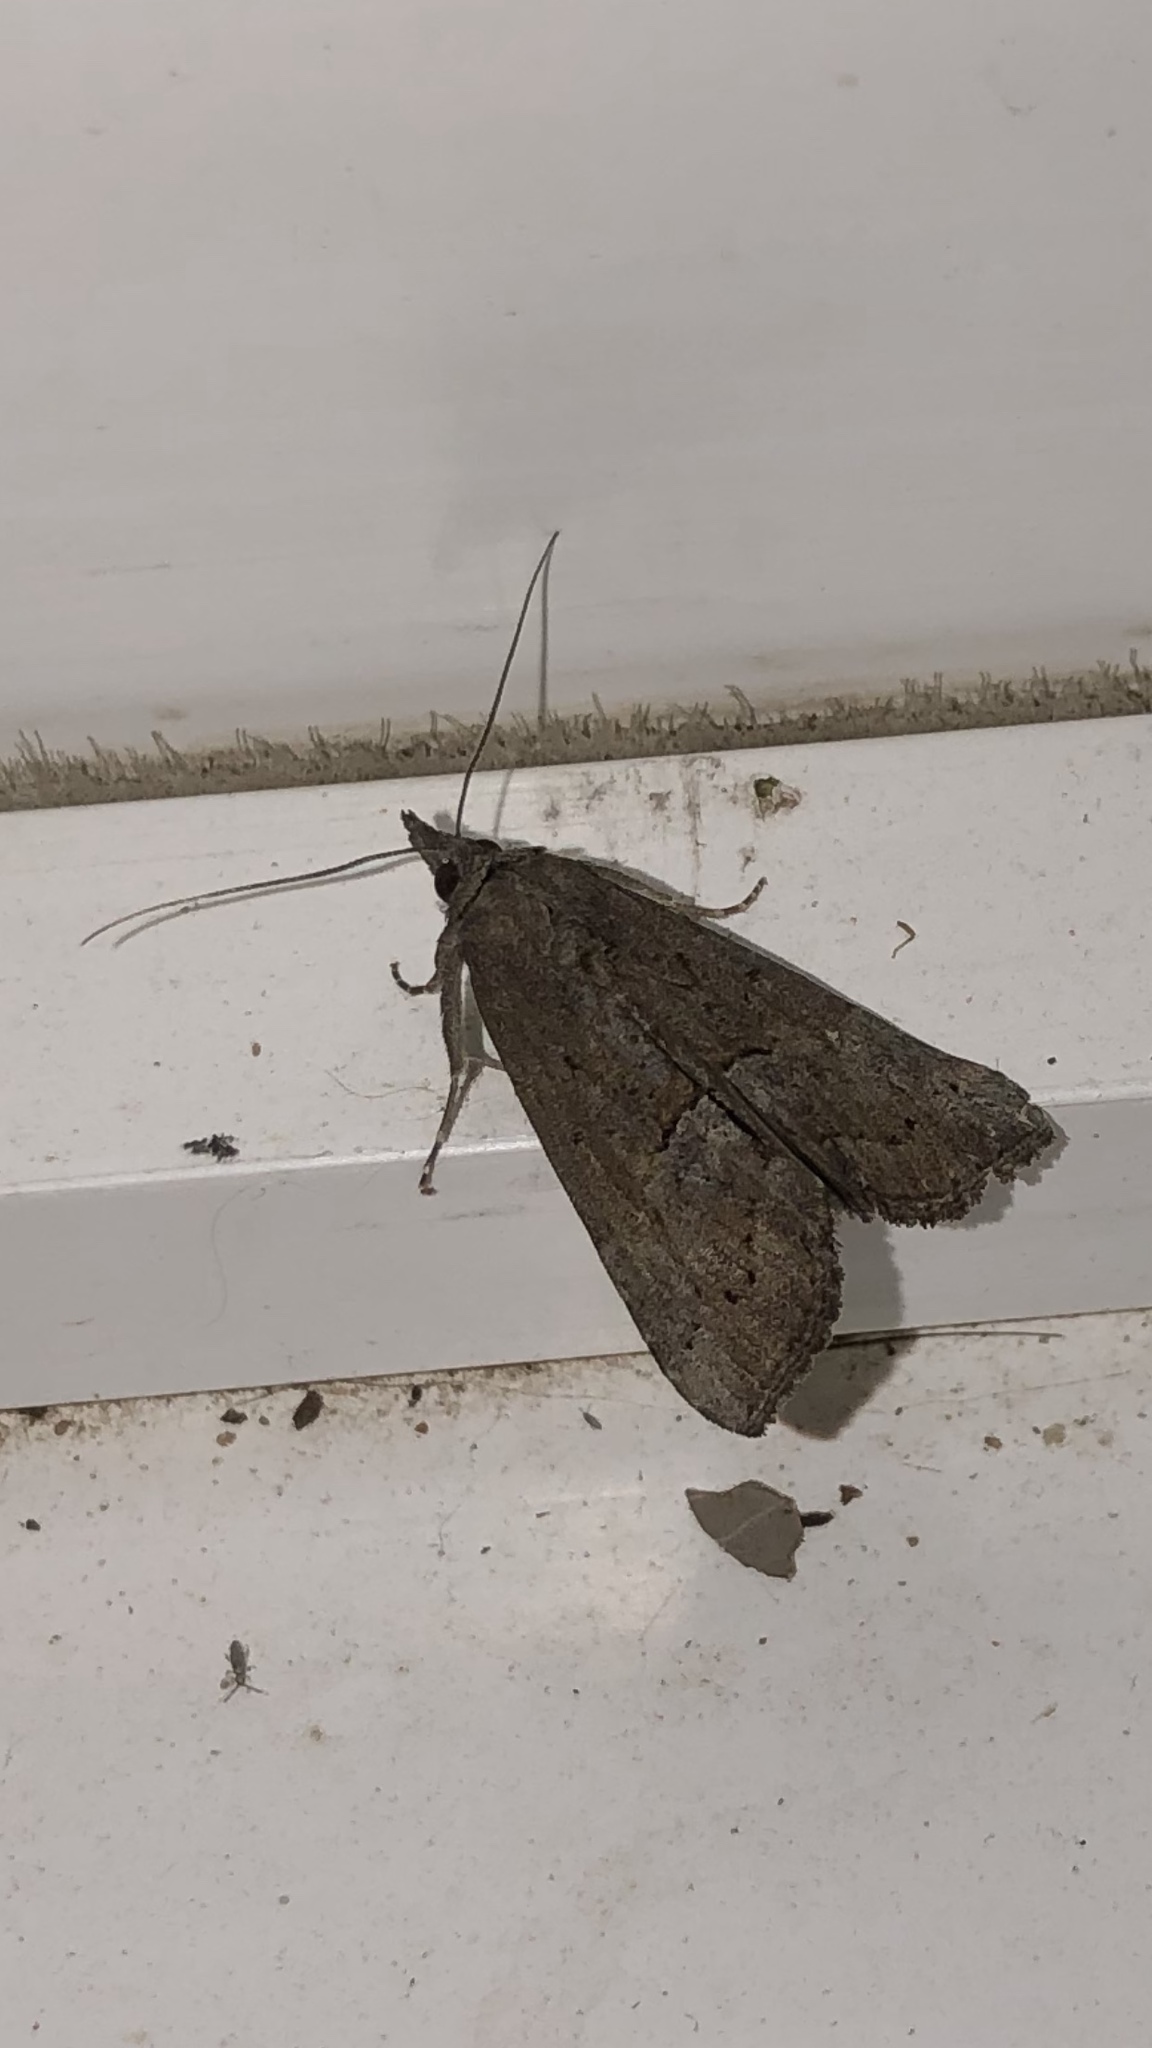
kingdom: Animalia
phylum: Arthropoda
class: Insecta
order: Lepidoptera
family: Erebidae
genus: Hypena
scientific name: Hypena scabra
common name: Green cloverworm
